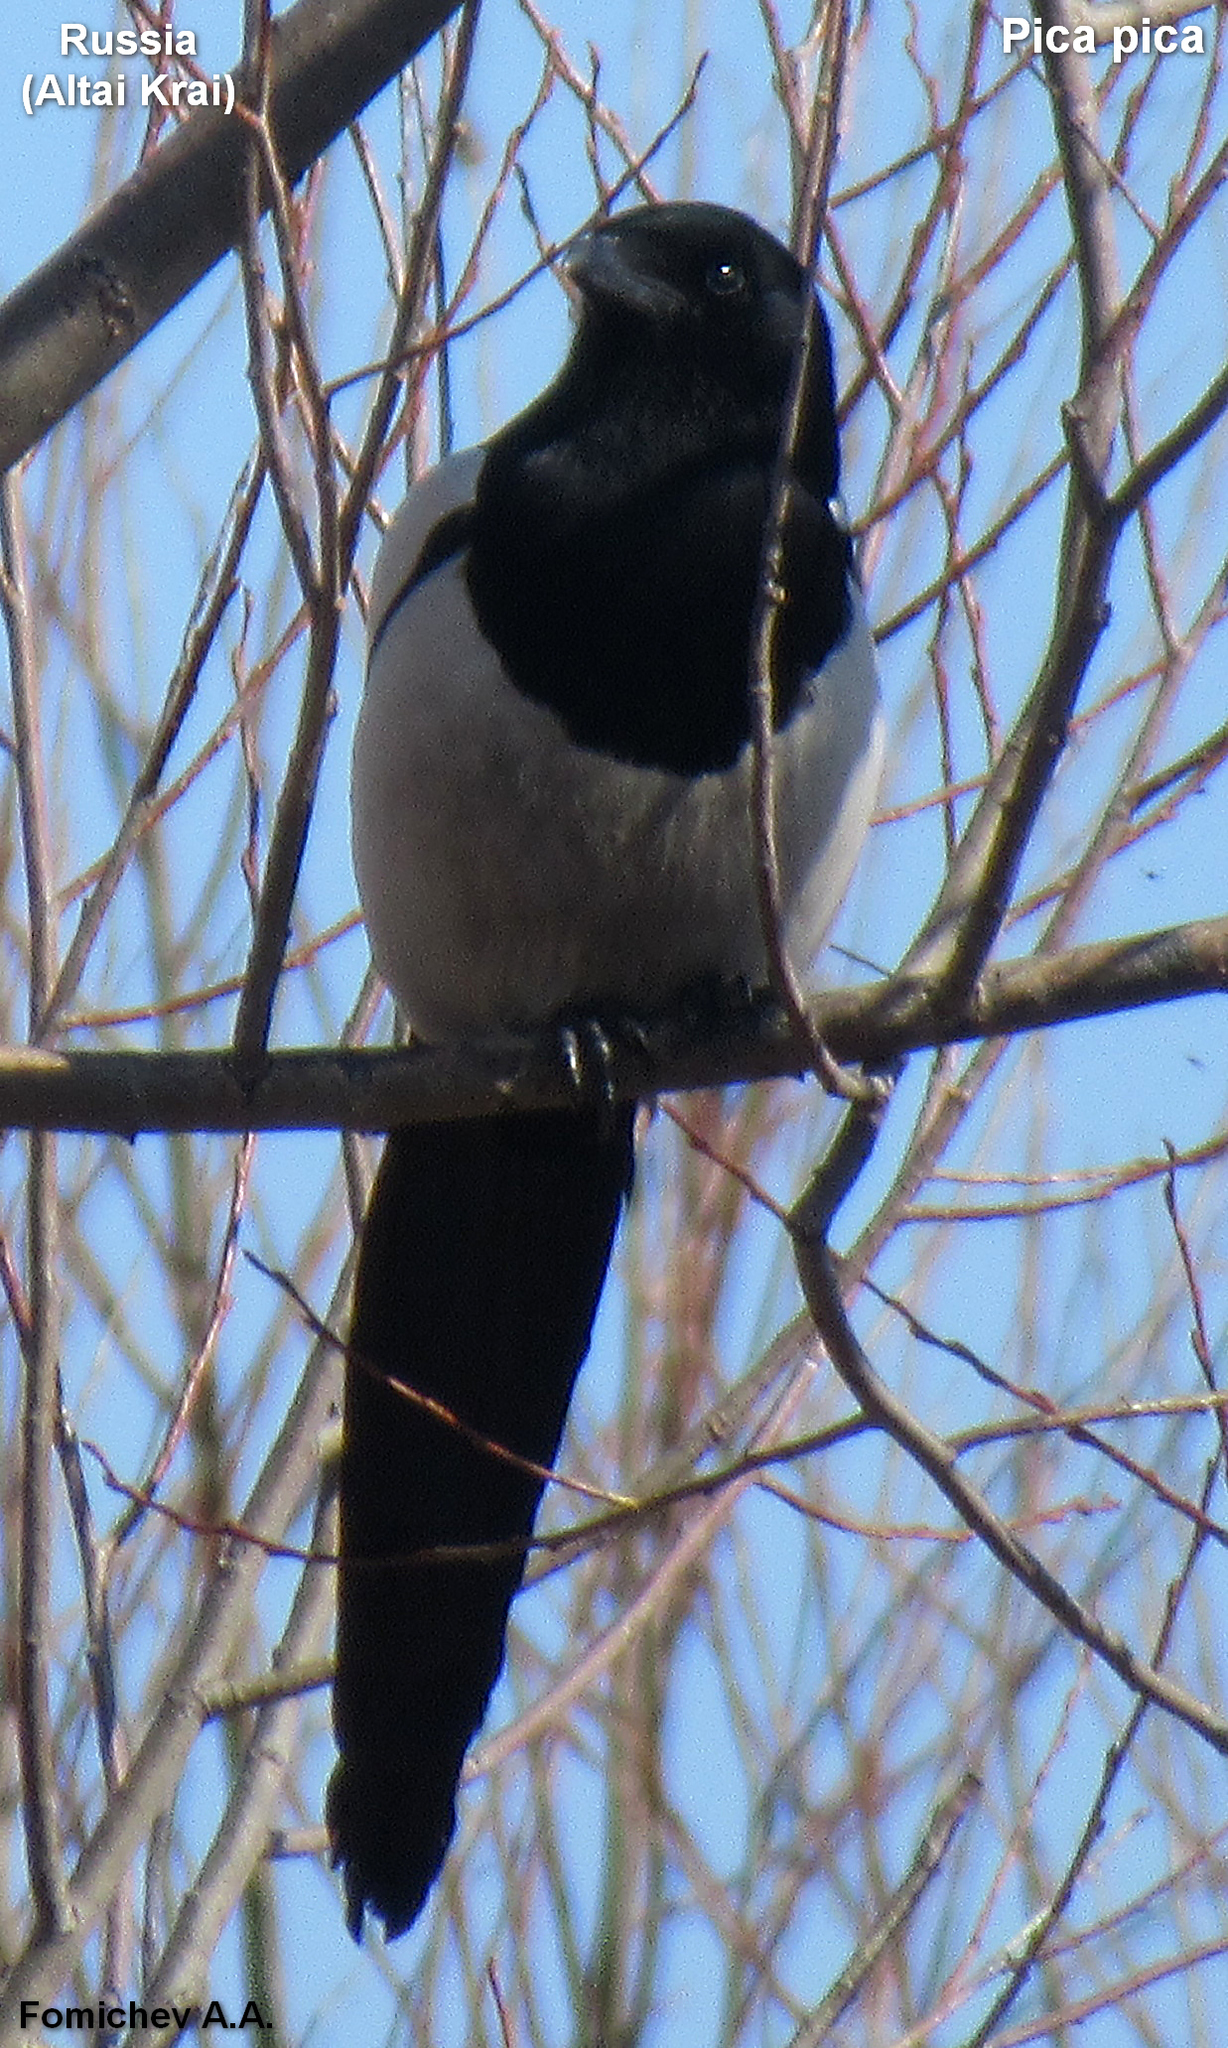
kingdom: Animalia
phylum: Chordata
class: Aves
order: Passeriformes
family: Corvidae
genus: Pica
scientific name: Pica pica
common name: Eurasian magpie
